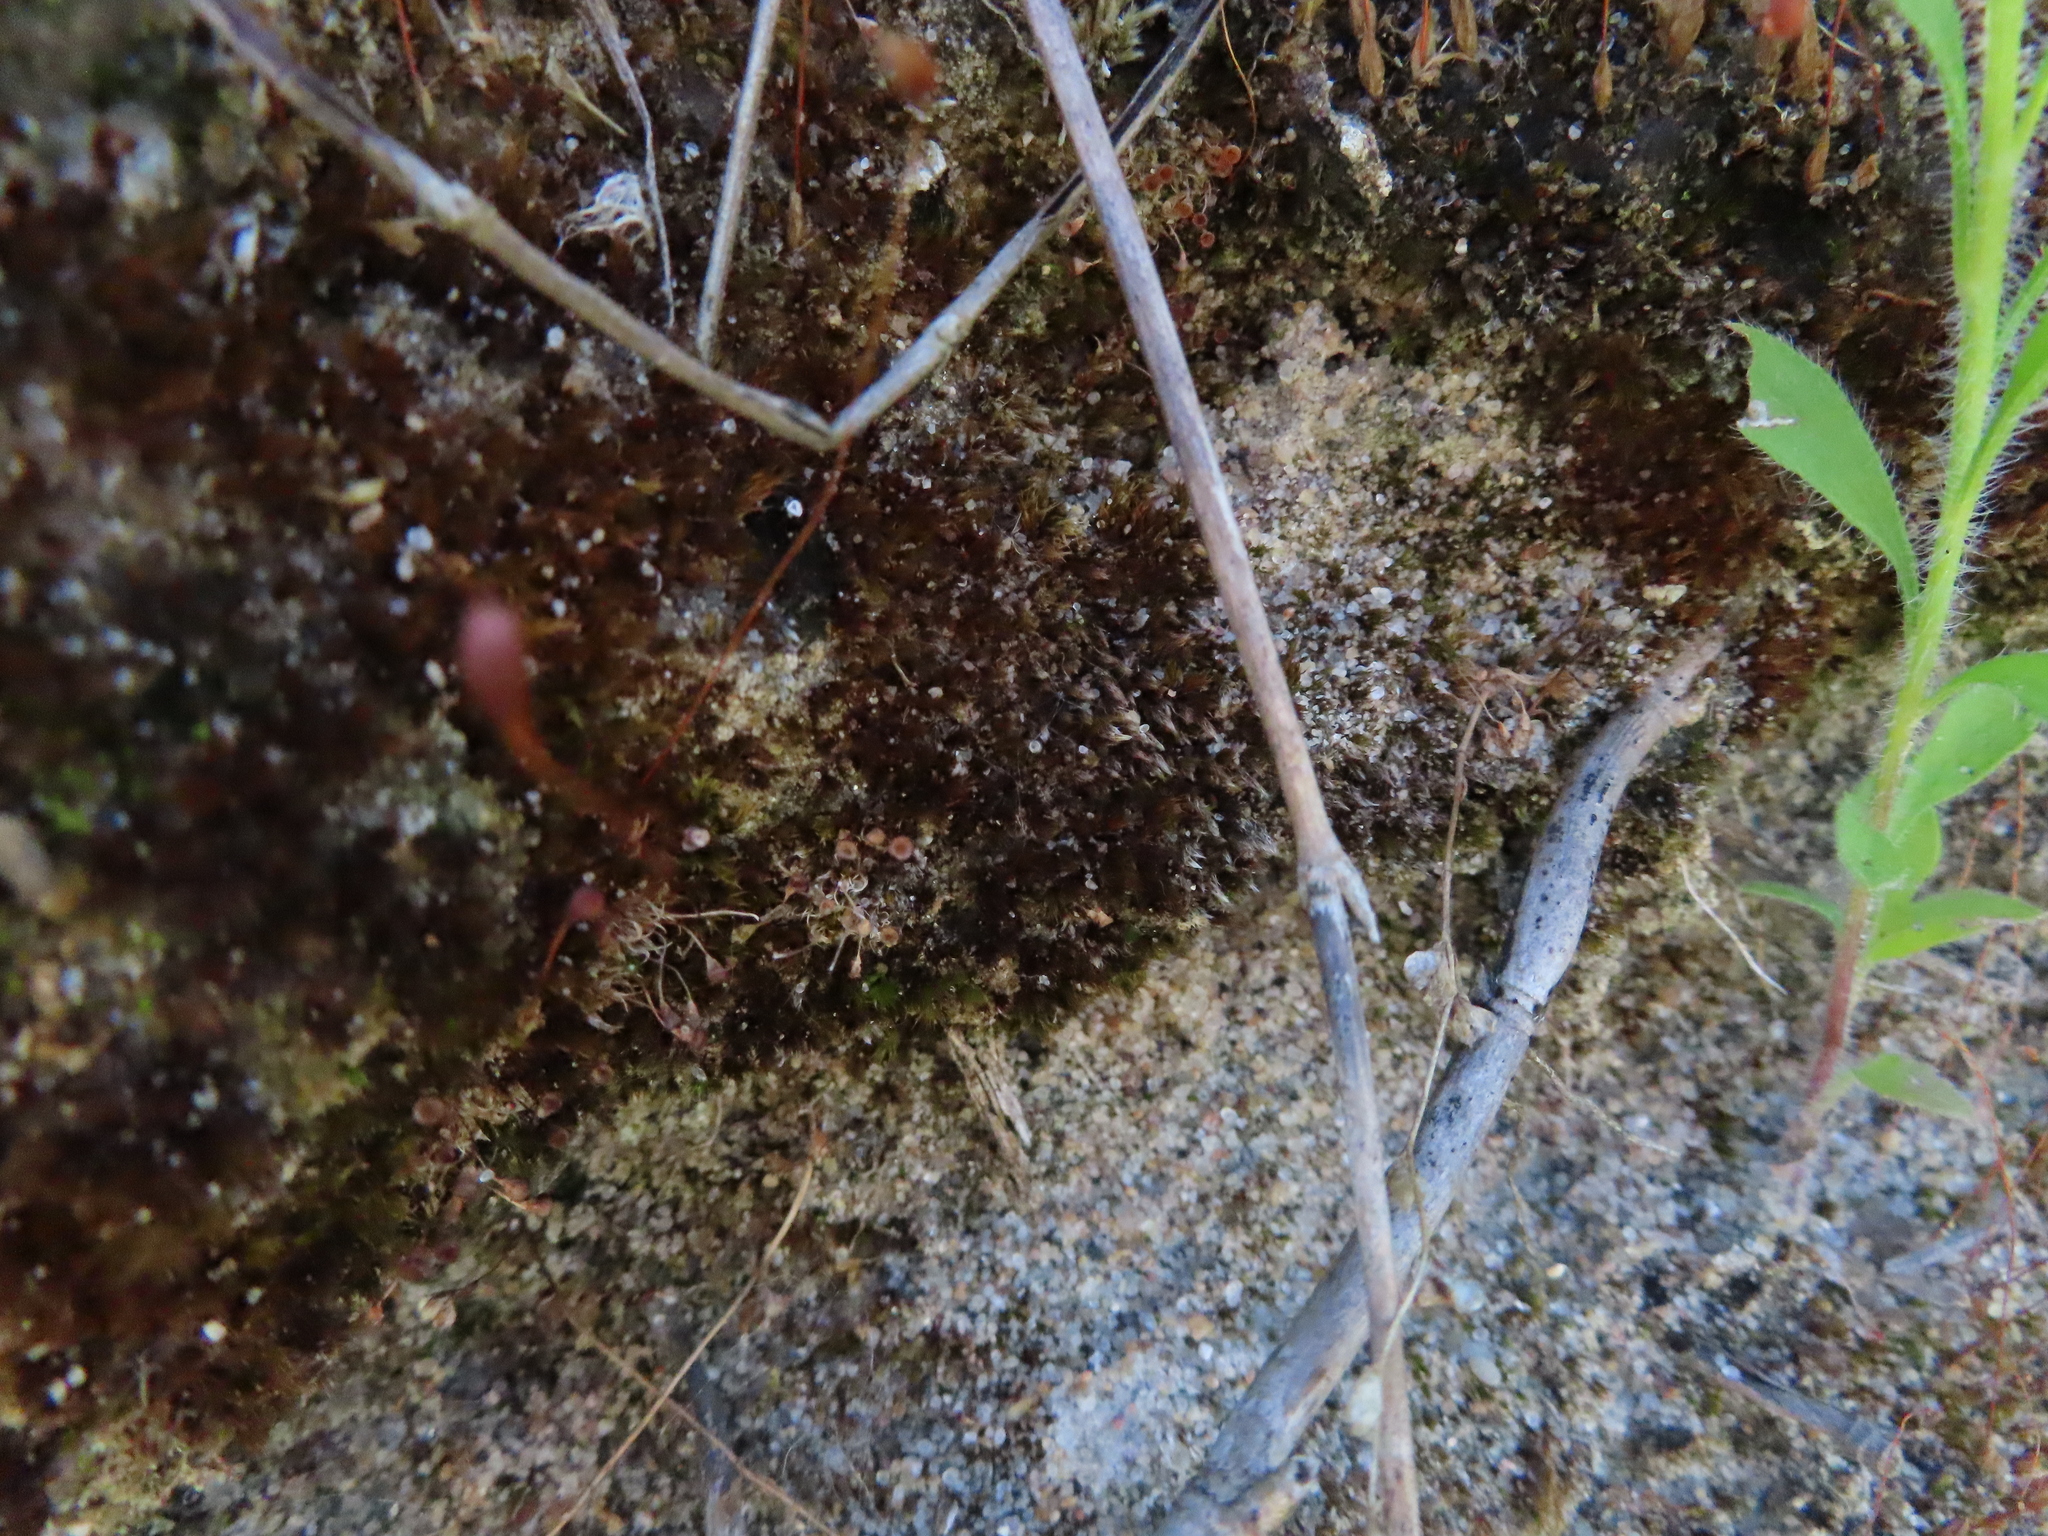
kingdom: Plantae
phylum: Bryophyta
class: Bryopsida
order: Funariales
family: Funariaceae
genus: Funaria
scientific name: Funaria hygrometrica
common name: Common cord moss
